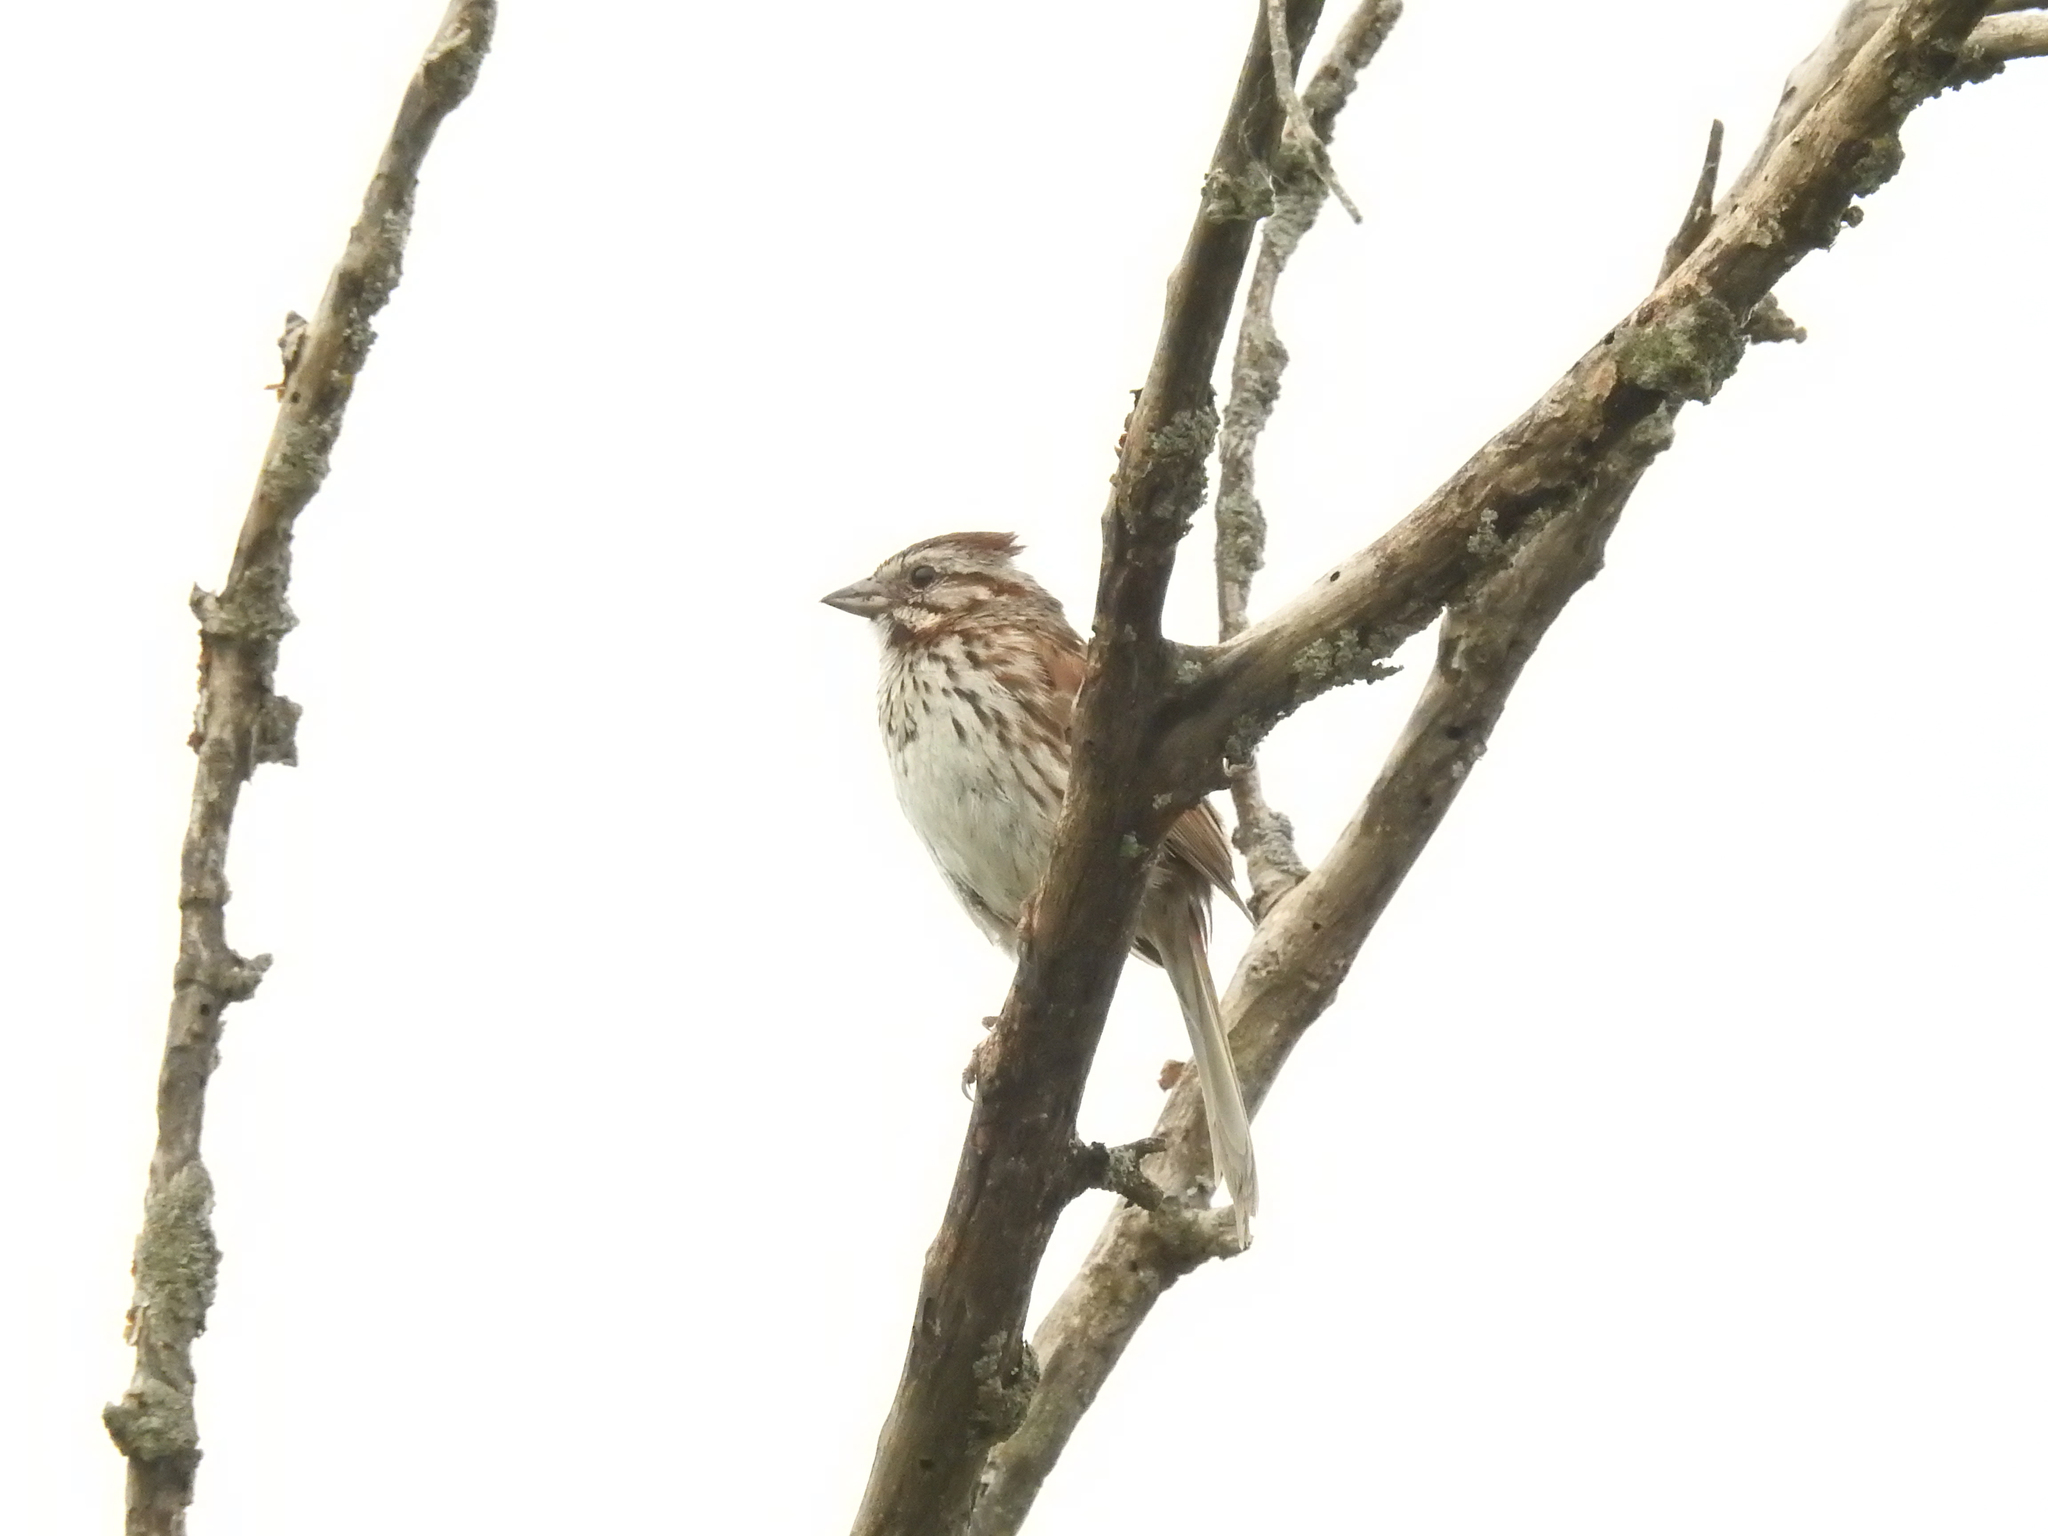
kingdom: Animalia
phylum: Chordata
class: Aves
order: Passeriformes
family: Passerellidae
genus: Melospiza
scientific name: Melospiza melodia
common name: Song sparrow
